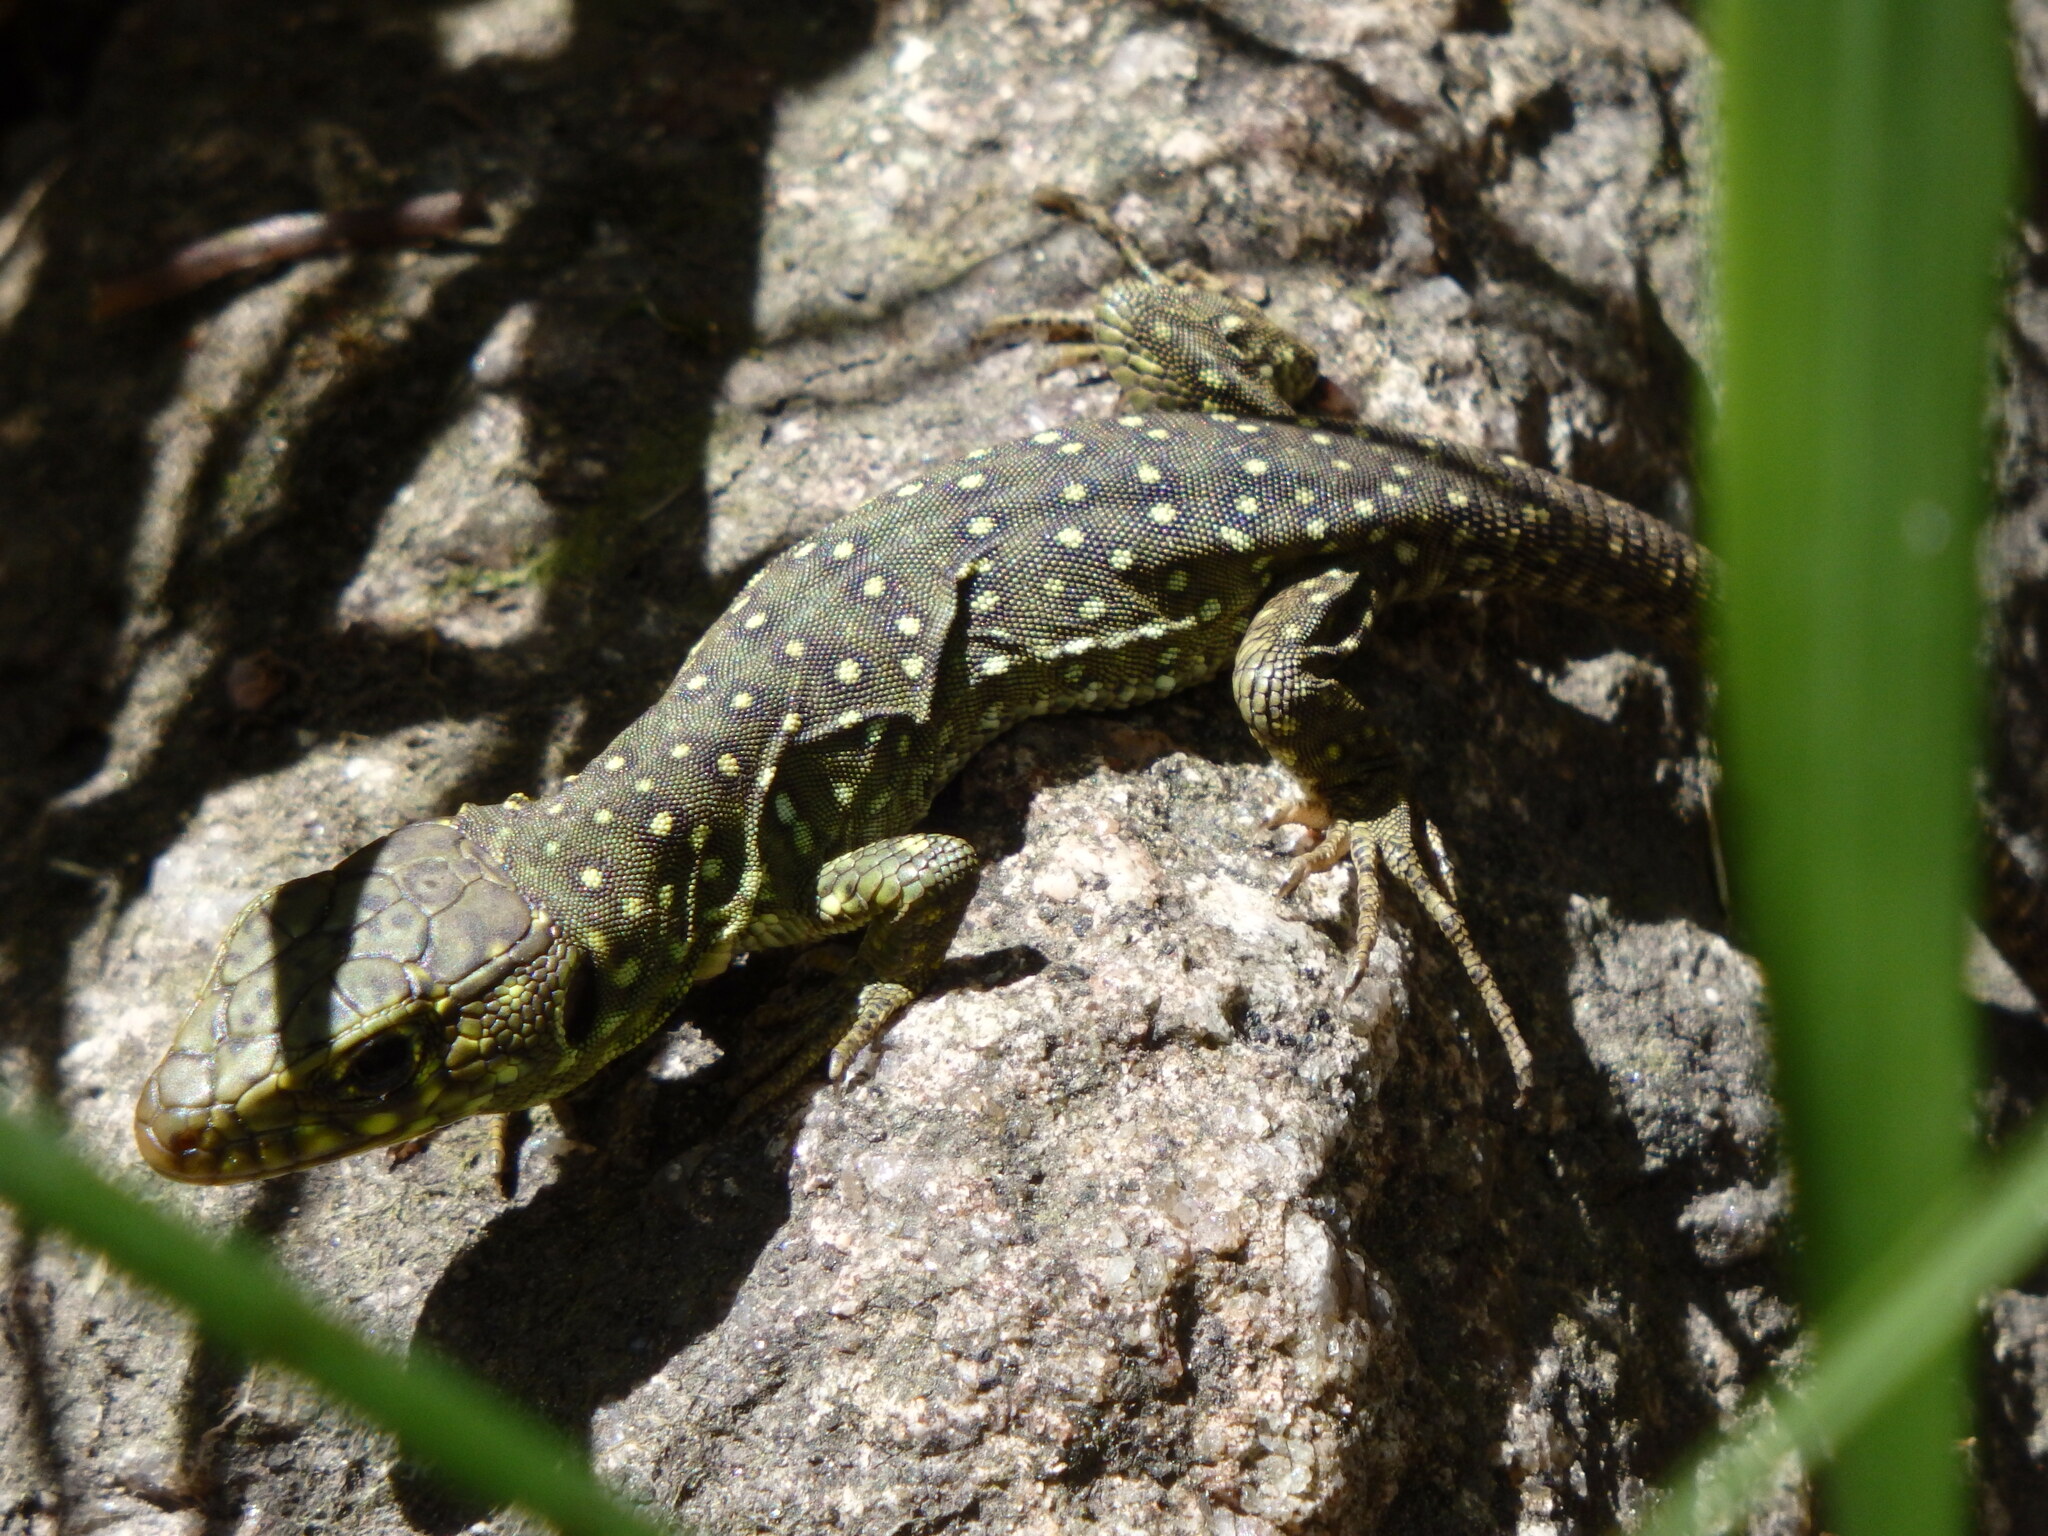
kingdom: Animalia
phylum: Chordata
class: Squamata
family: Lacertidae
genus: Timon
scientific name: Timon lepidus
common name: Ocellated lizard
